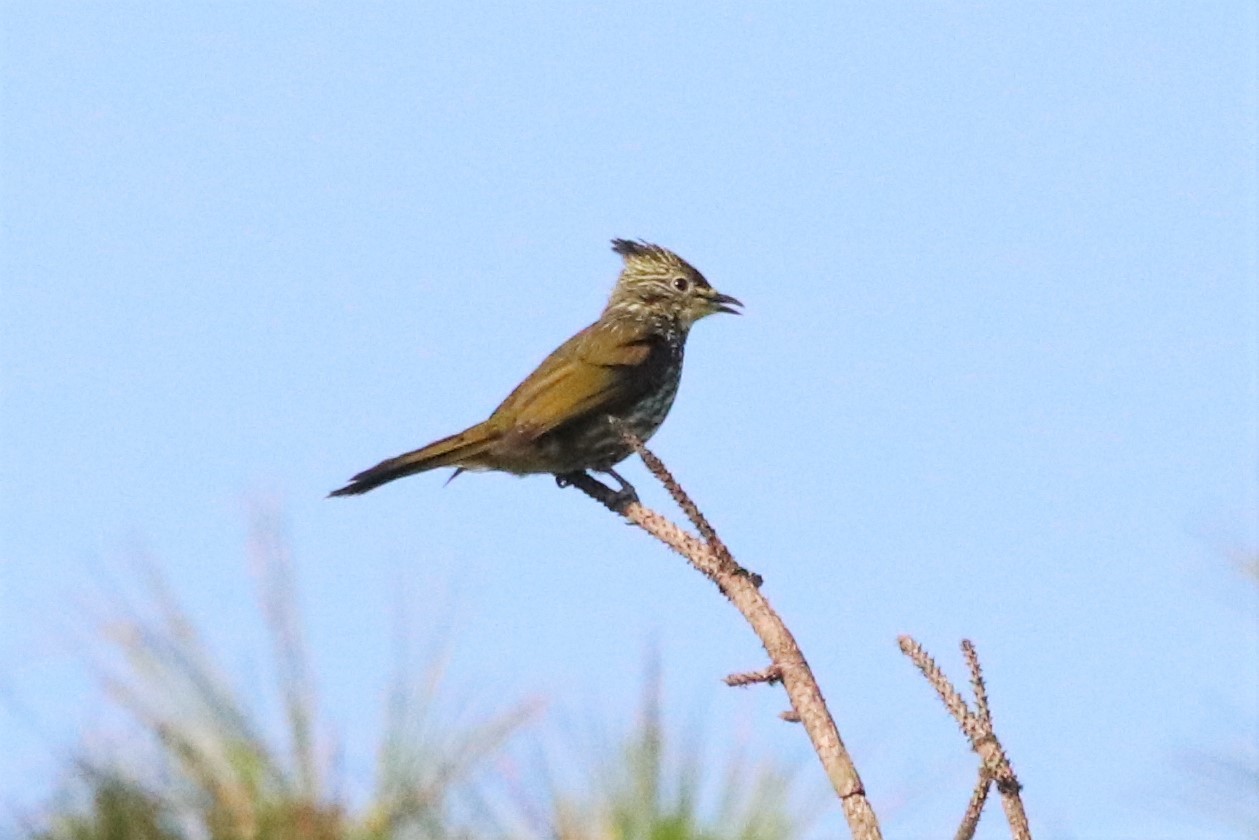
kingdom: Animalia
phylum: Chordata
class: Aves
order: Passeriformes
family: Pycnonotidae
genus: Pycnonotus
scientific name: Pycnonotus striatus
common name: Striated bulbul
